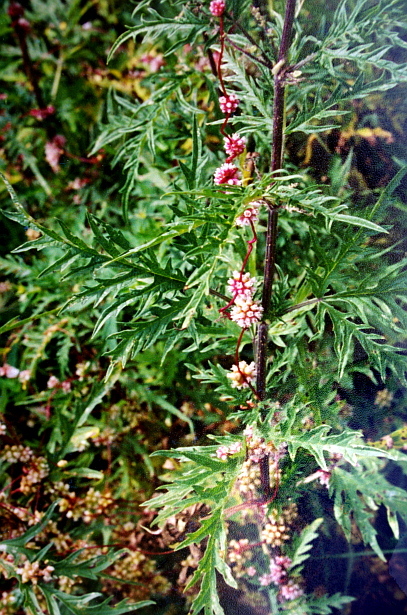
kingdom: Plantae
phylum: Tracheophyta
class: Magnoliopsida
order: Rosales
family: Urticaceae
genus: Urtica
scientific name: Urtica cannabina
